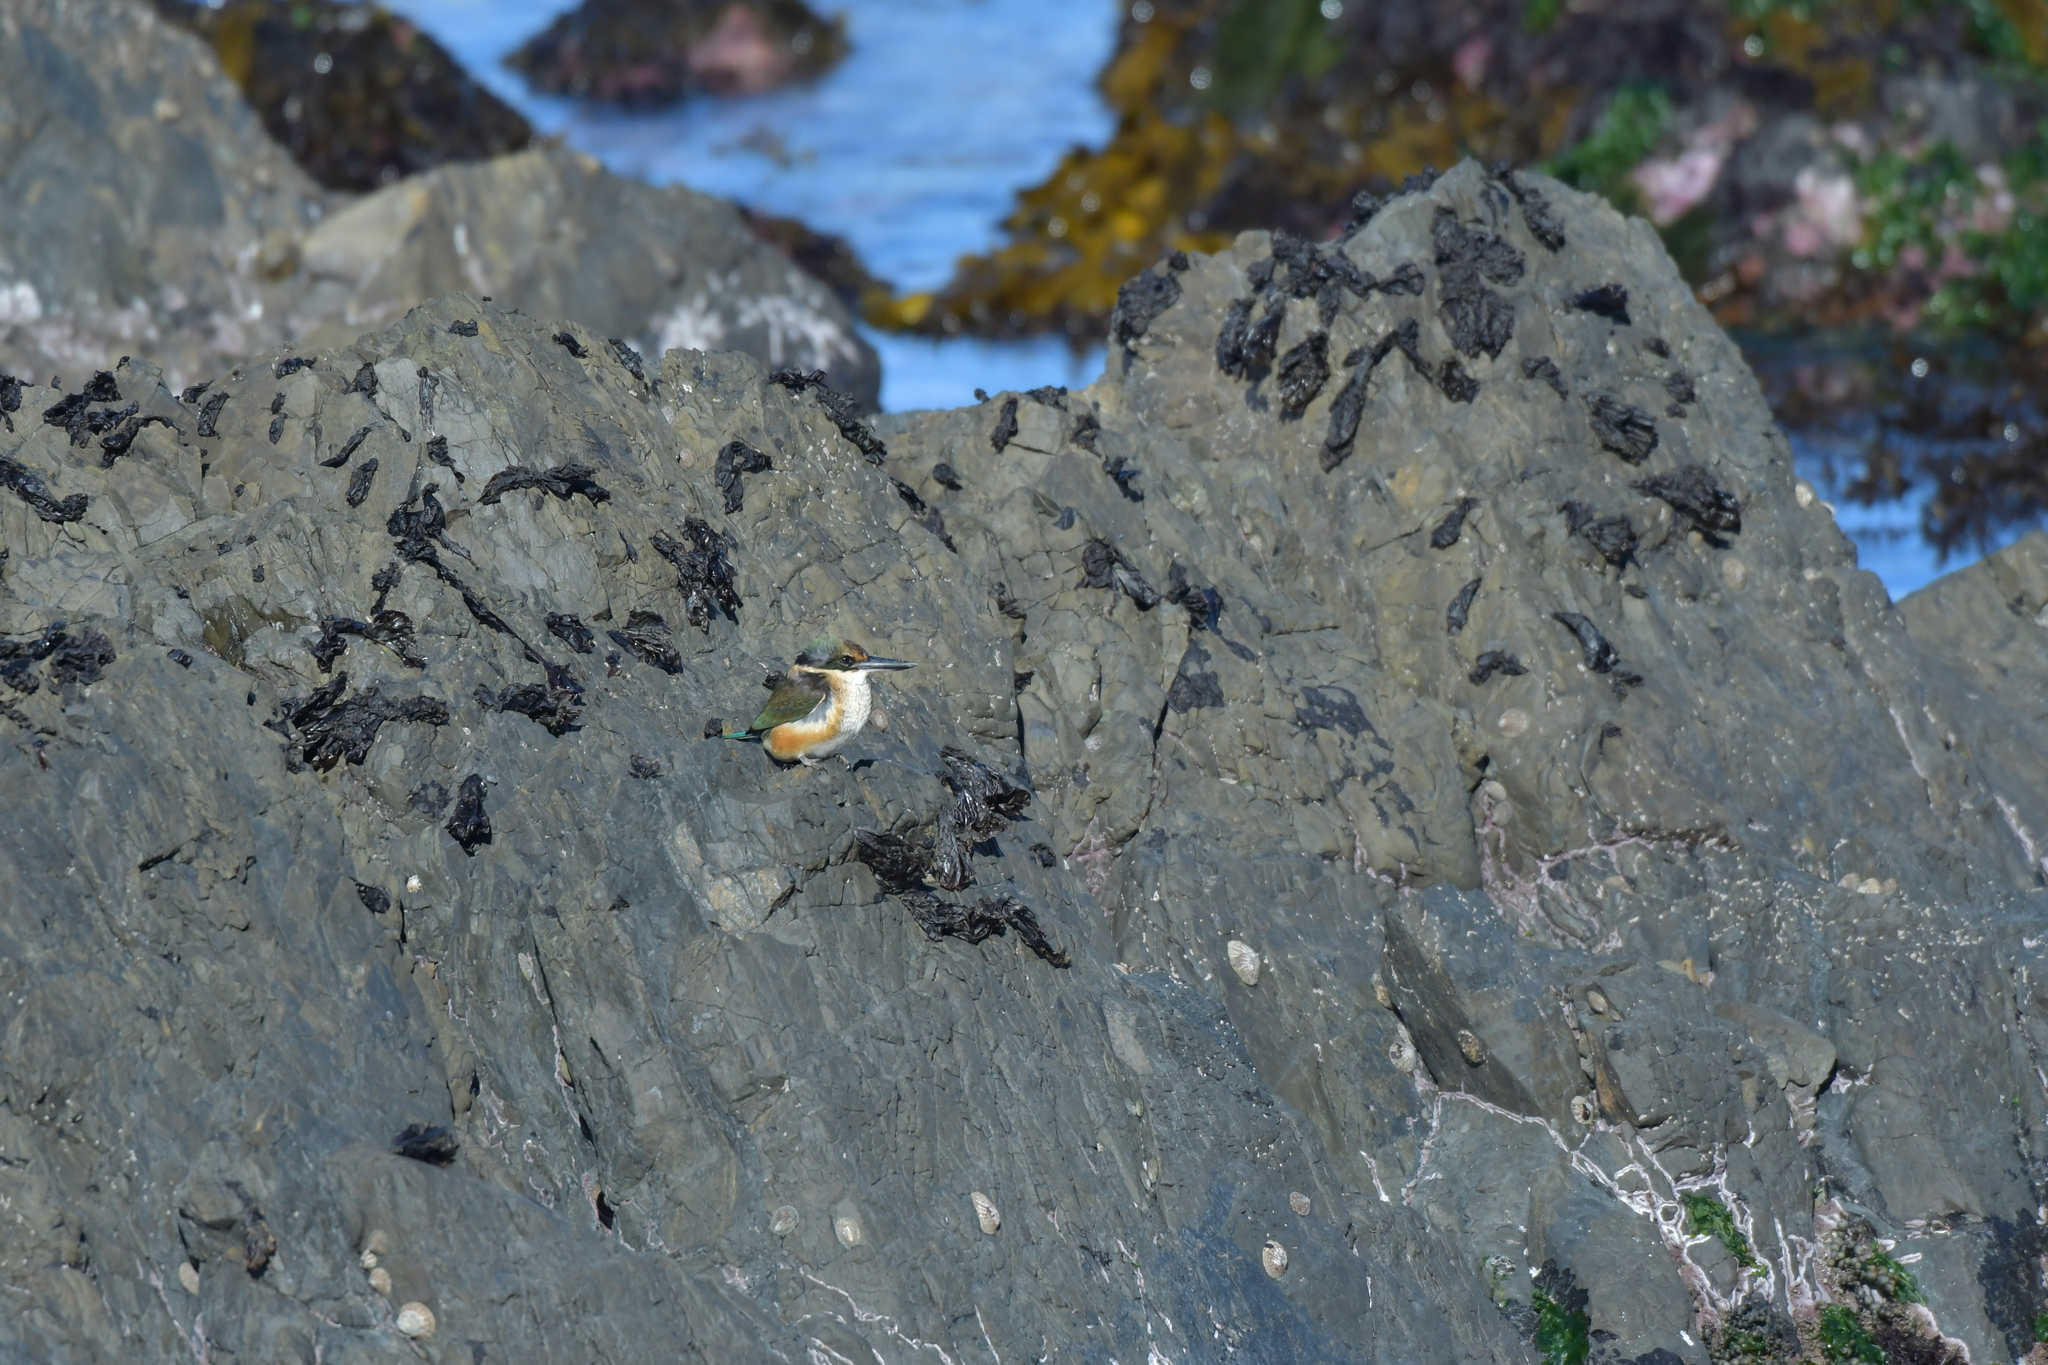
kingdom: Animalia
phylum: Chordata
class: Aves
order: Coraciiformes
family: Alcedinidae
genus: Todiramphus
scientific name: Todiramphus sanctus
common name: Sacred kingfisher
